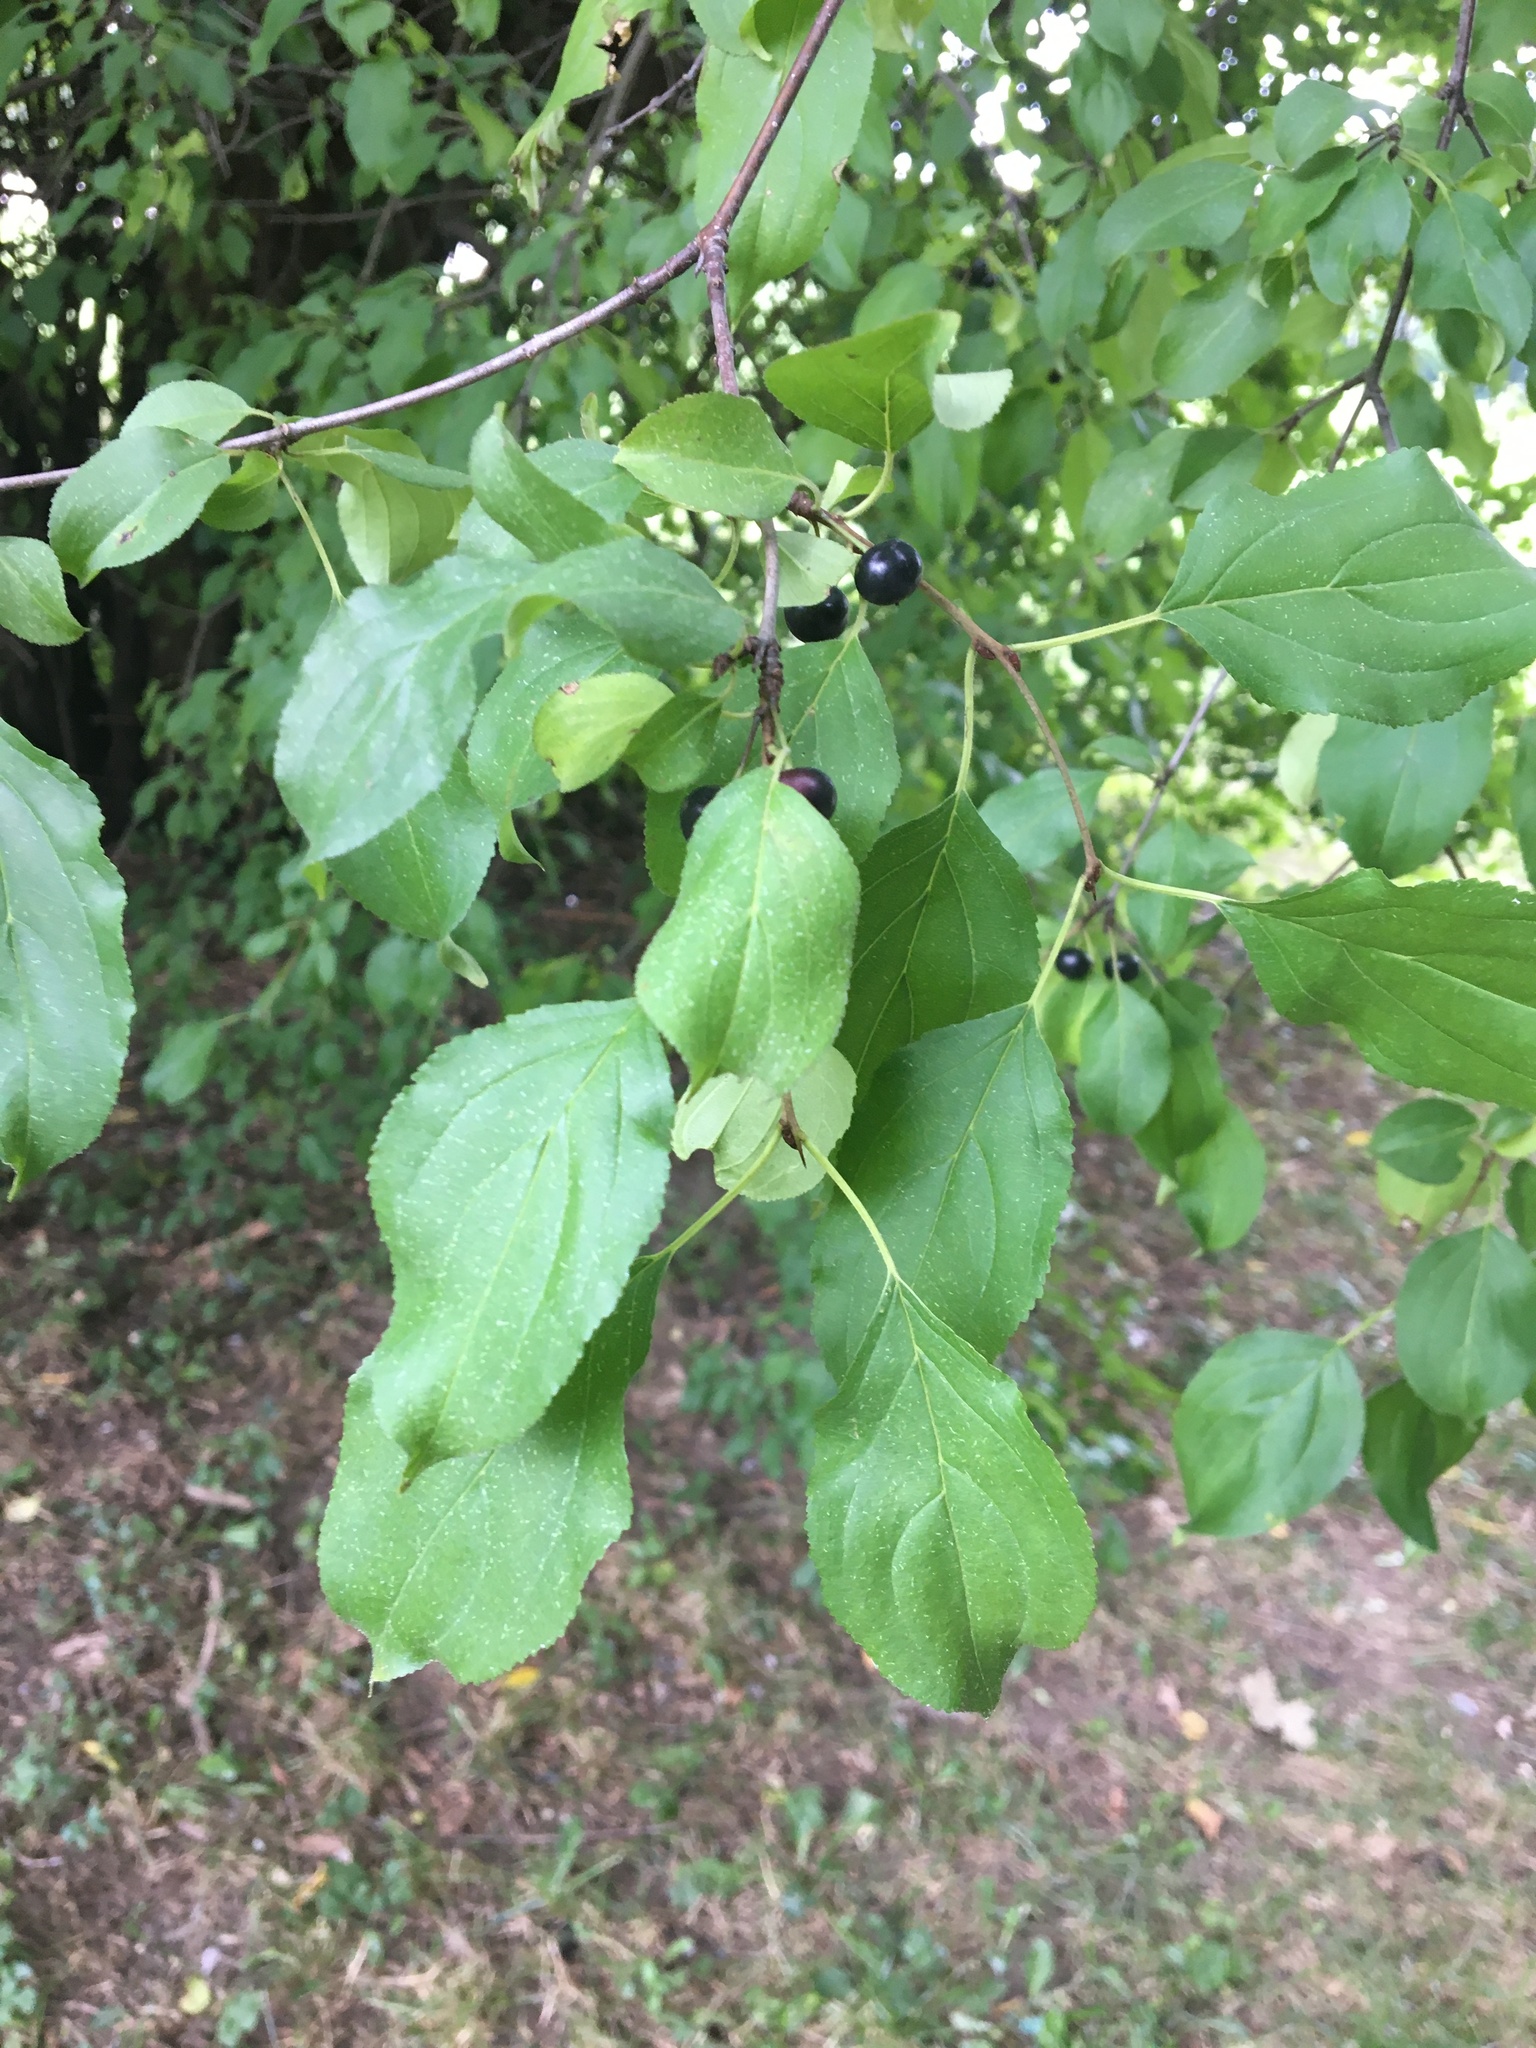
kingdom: Plantae
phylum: Tracheophyta
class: Magnoliopsida
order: Rosales
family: Rhamnaceae
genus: Rhamnus
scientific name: Rhamnus cathartica
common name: Common buckthorn
